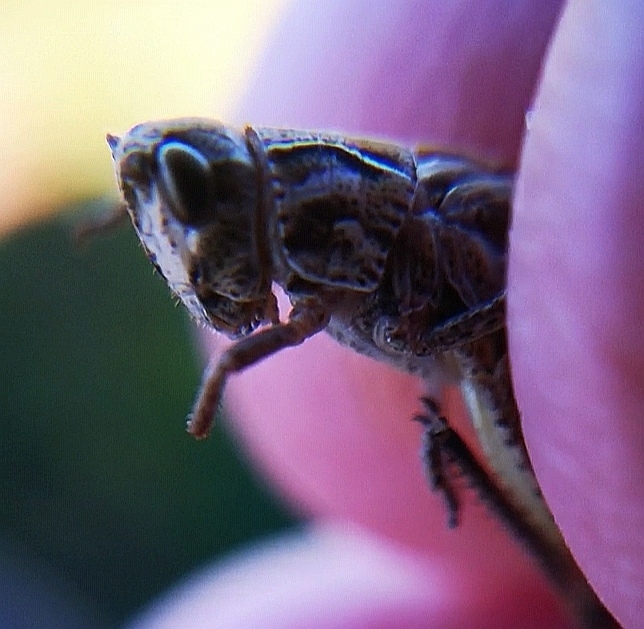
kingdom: Animalia
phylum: Arthropoda
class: Insecta
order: Orthoptera
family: Acrididae
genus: Gomphocerus
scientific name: Gomphocerus sibiricus
